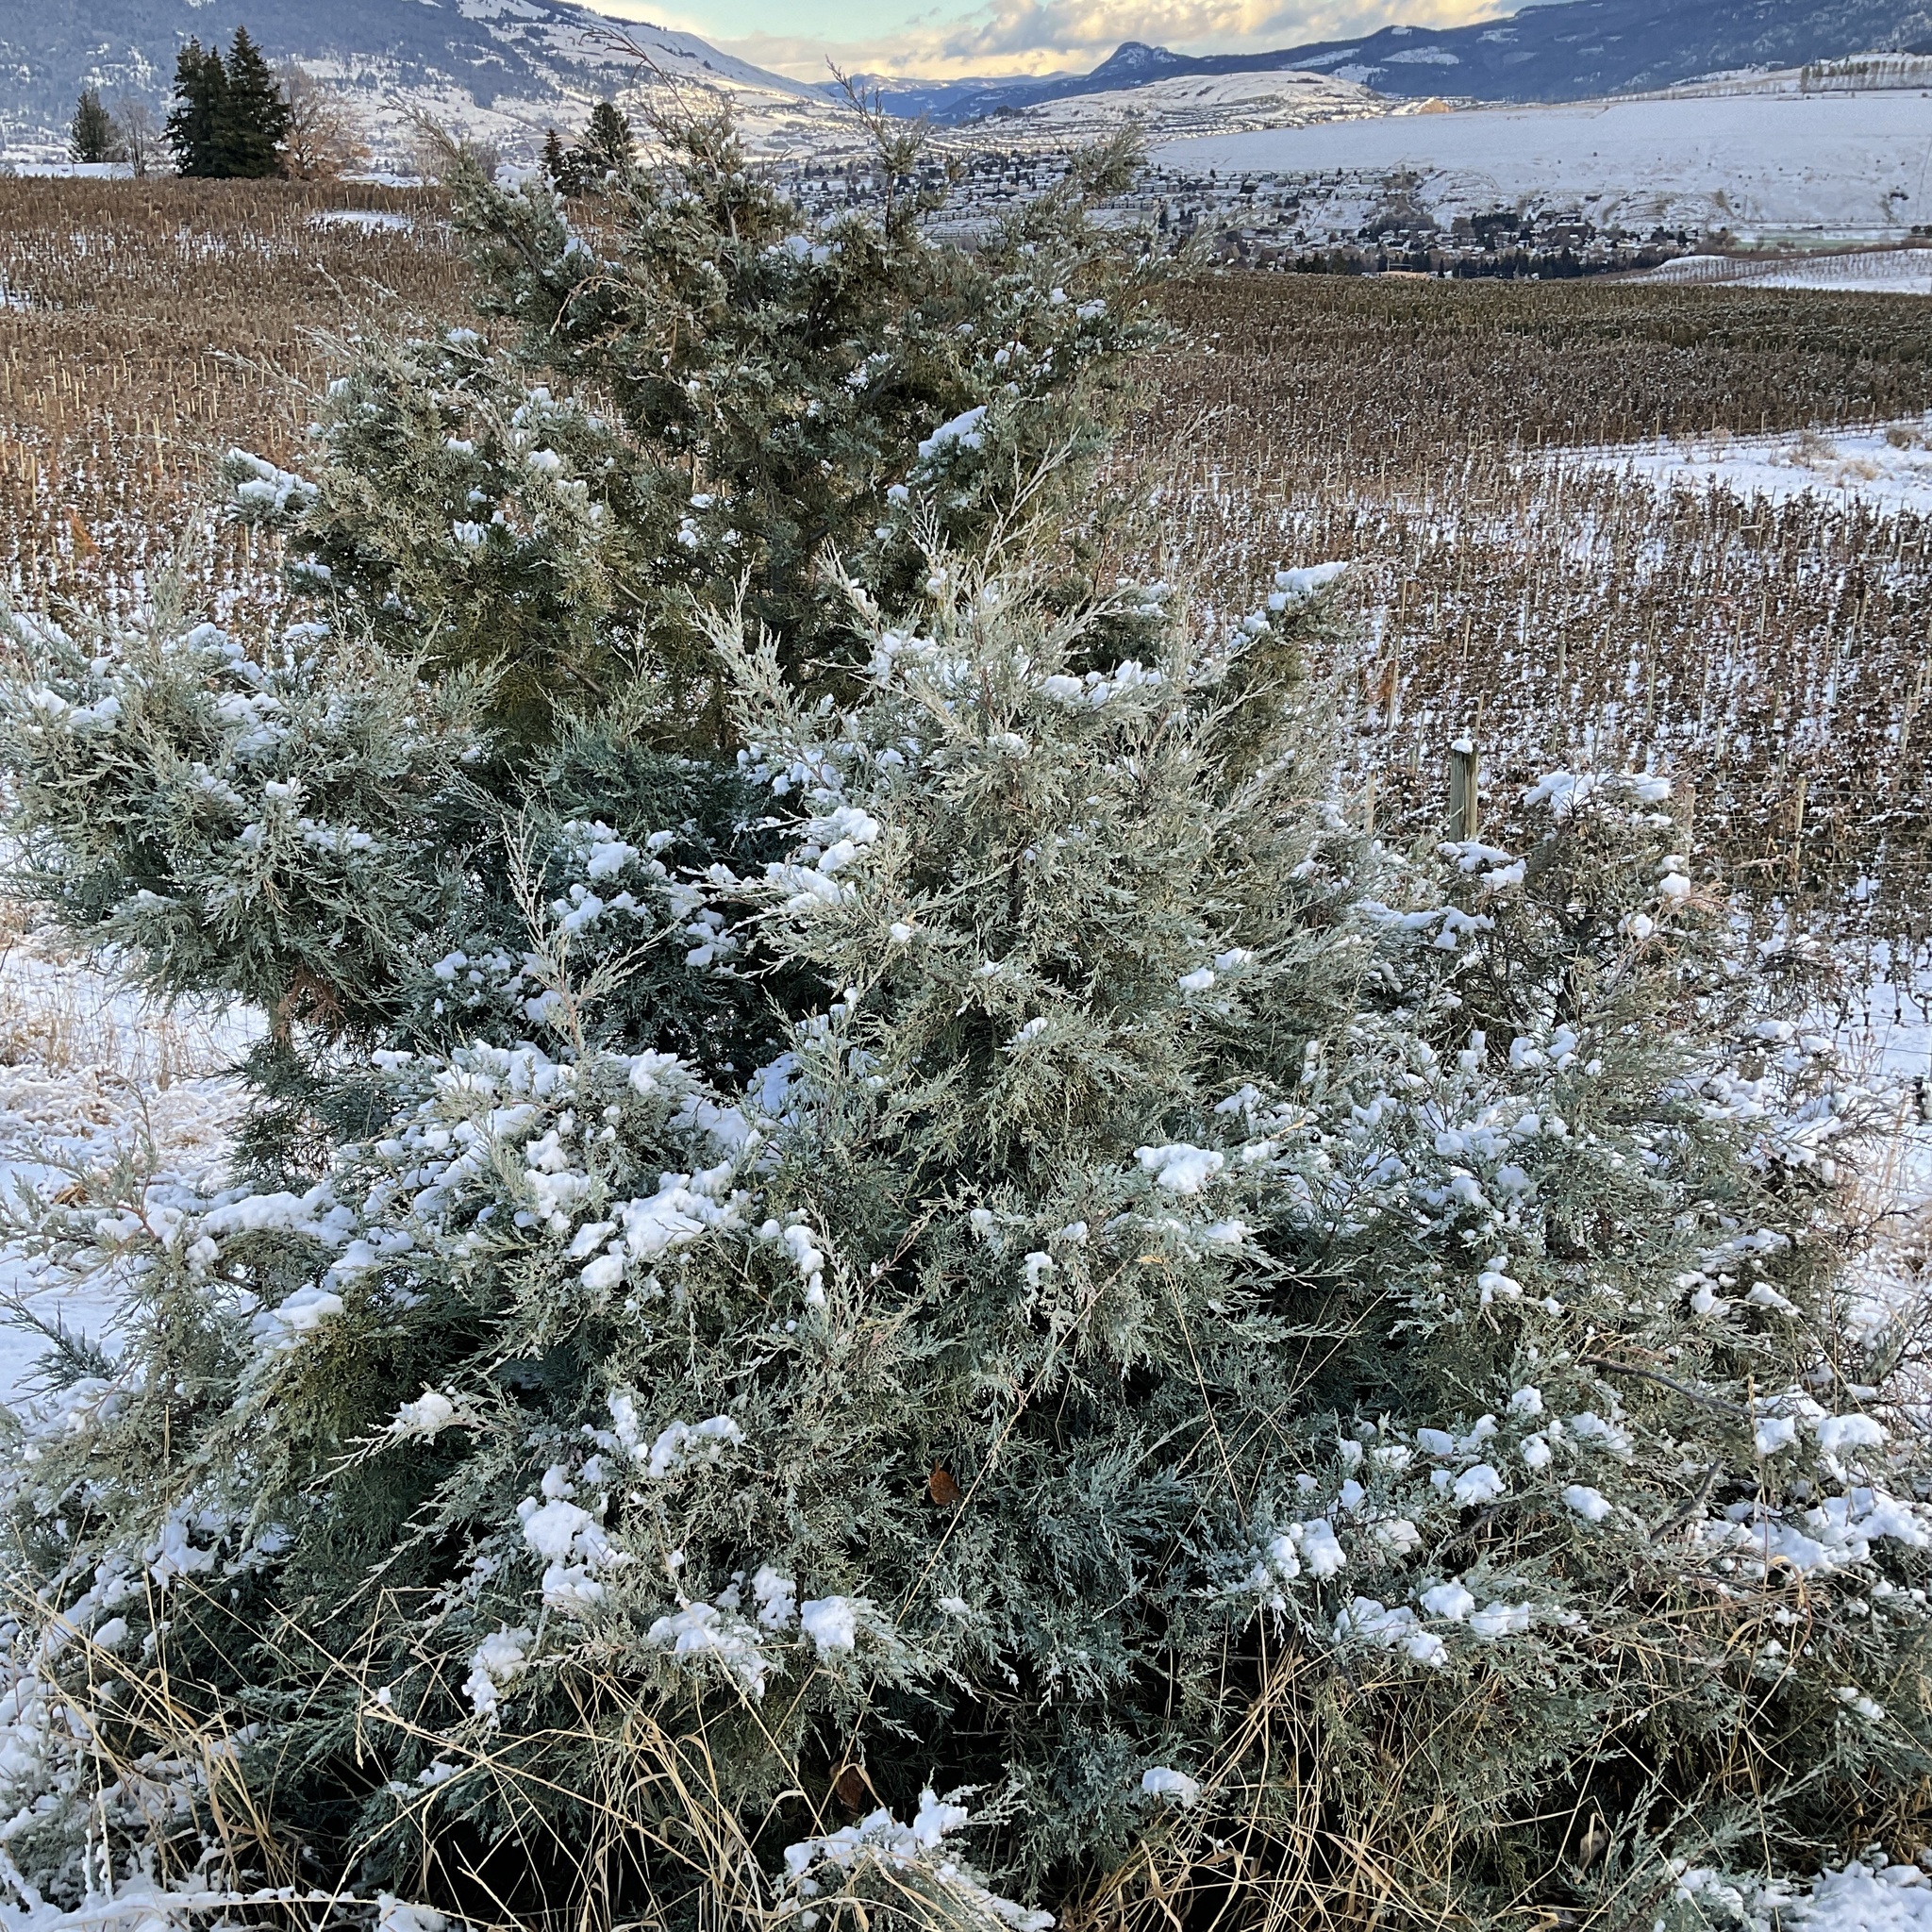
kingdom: Plantae
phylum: Tracheophyta
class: Pinopsida
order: Pinales
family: Cupressaceae
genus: Juniperus
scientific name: Juniperus scopulorum
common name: Rocky mountain juniper
